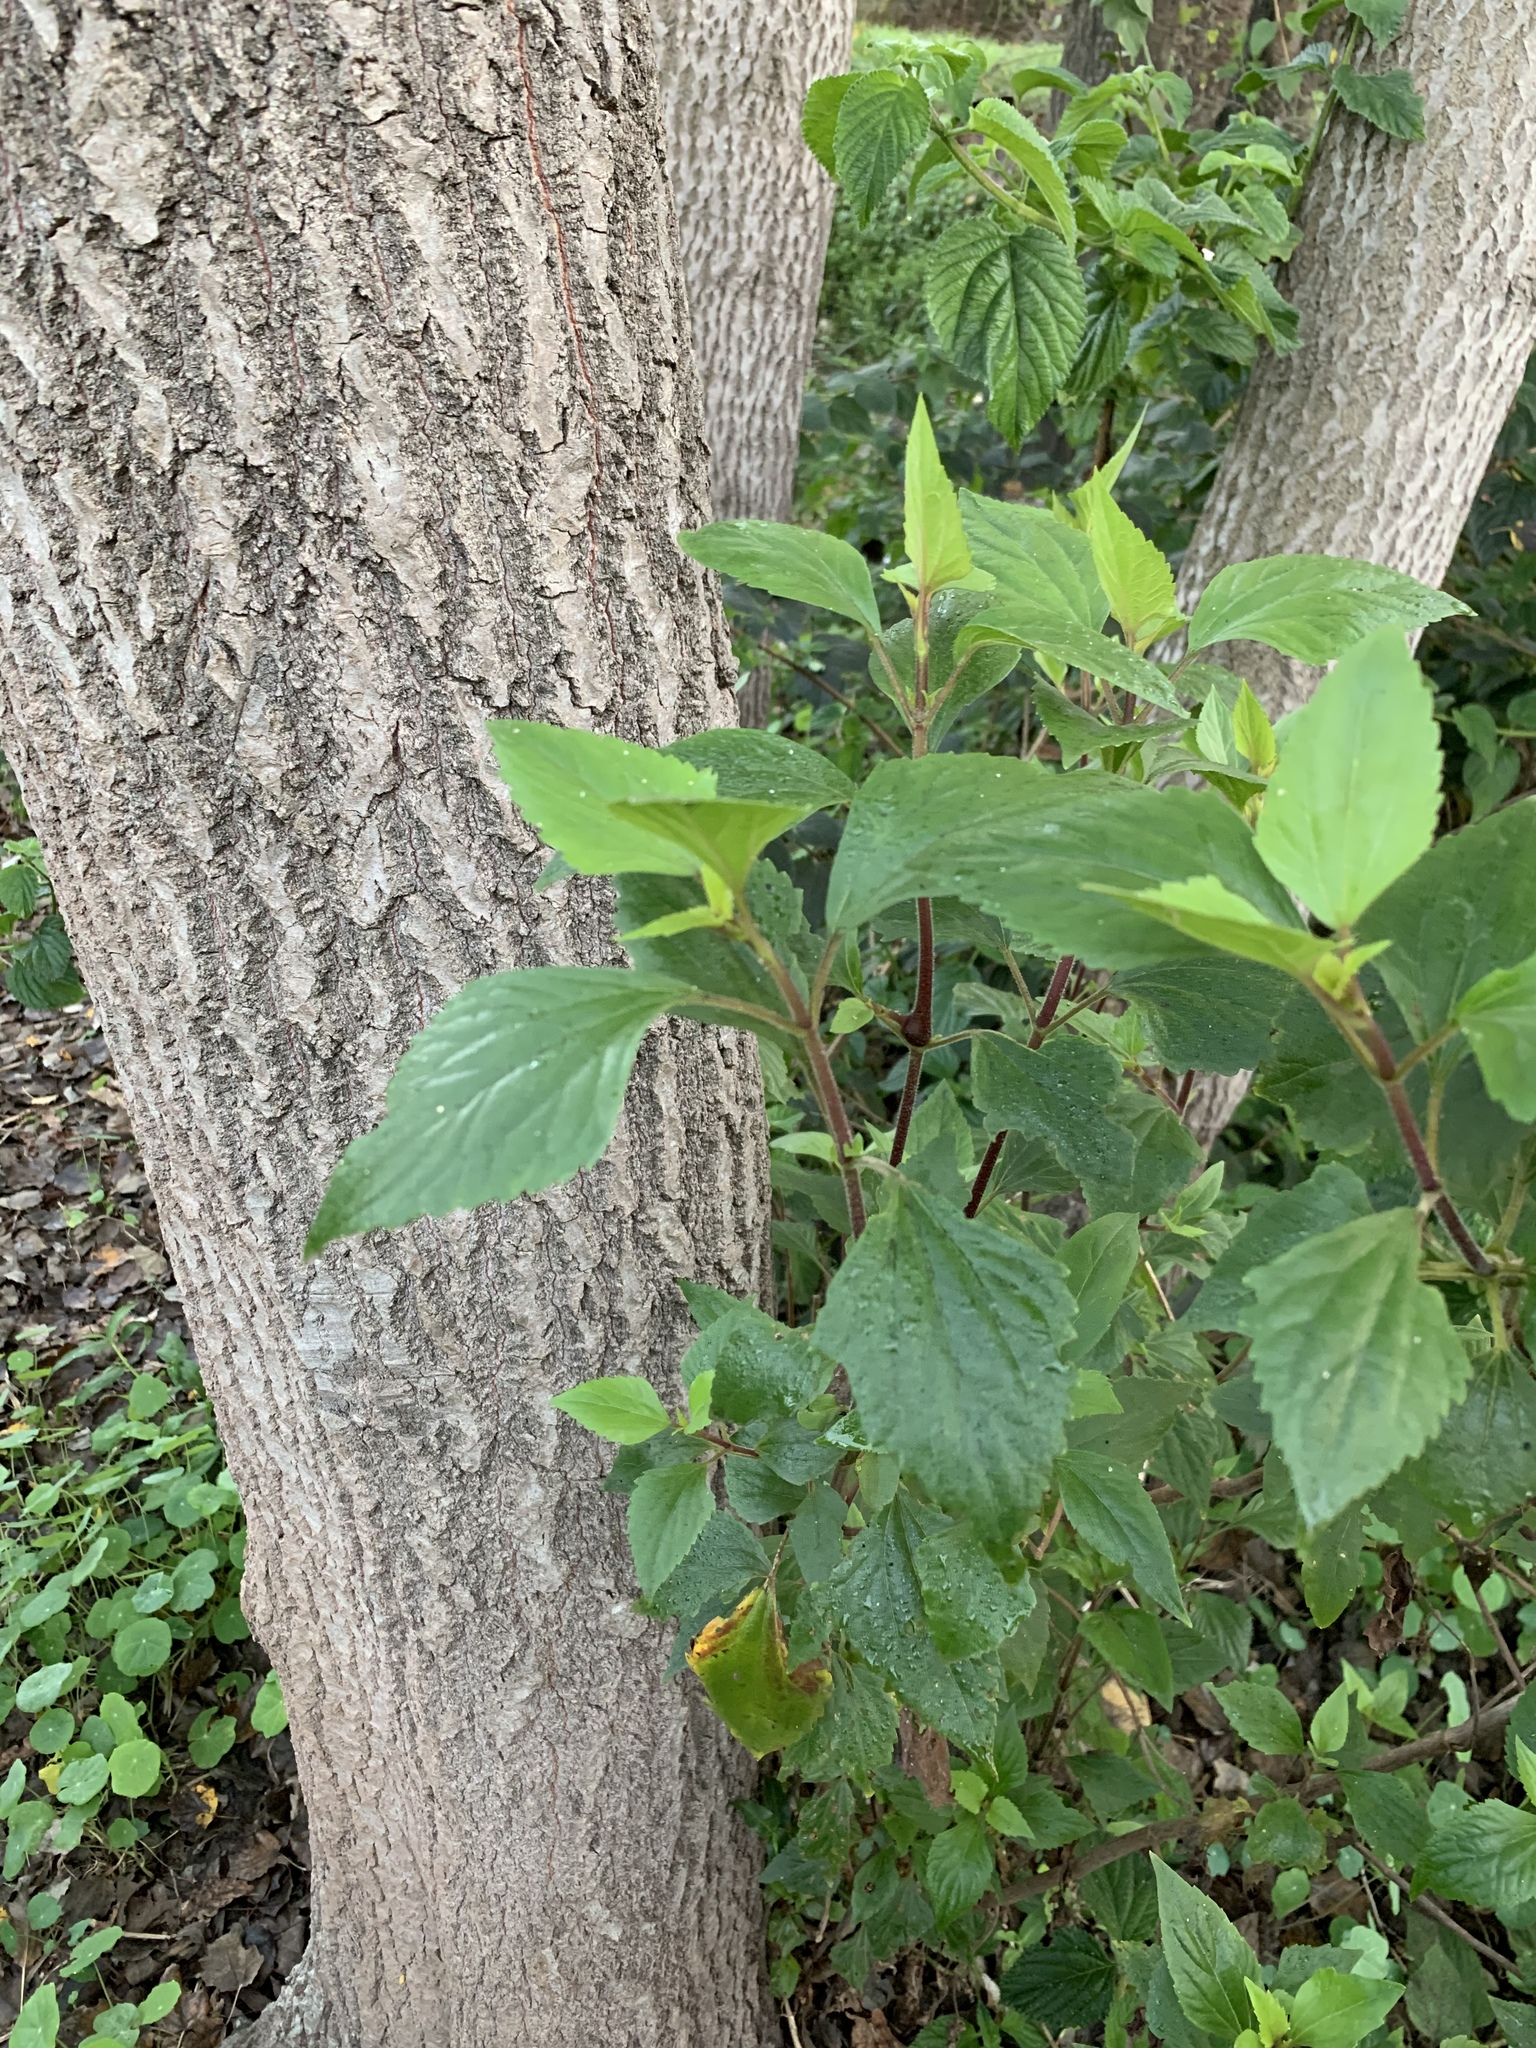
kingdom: Plantae
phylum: Tracheophyta
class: Magnoliopsida
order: Asterales
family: Asteraceae
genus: Ageratina
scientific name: Ageratina adenophora
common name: Sticky snakeroot
